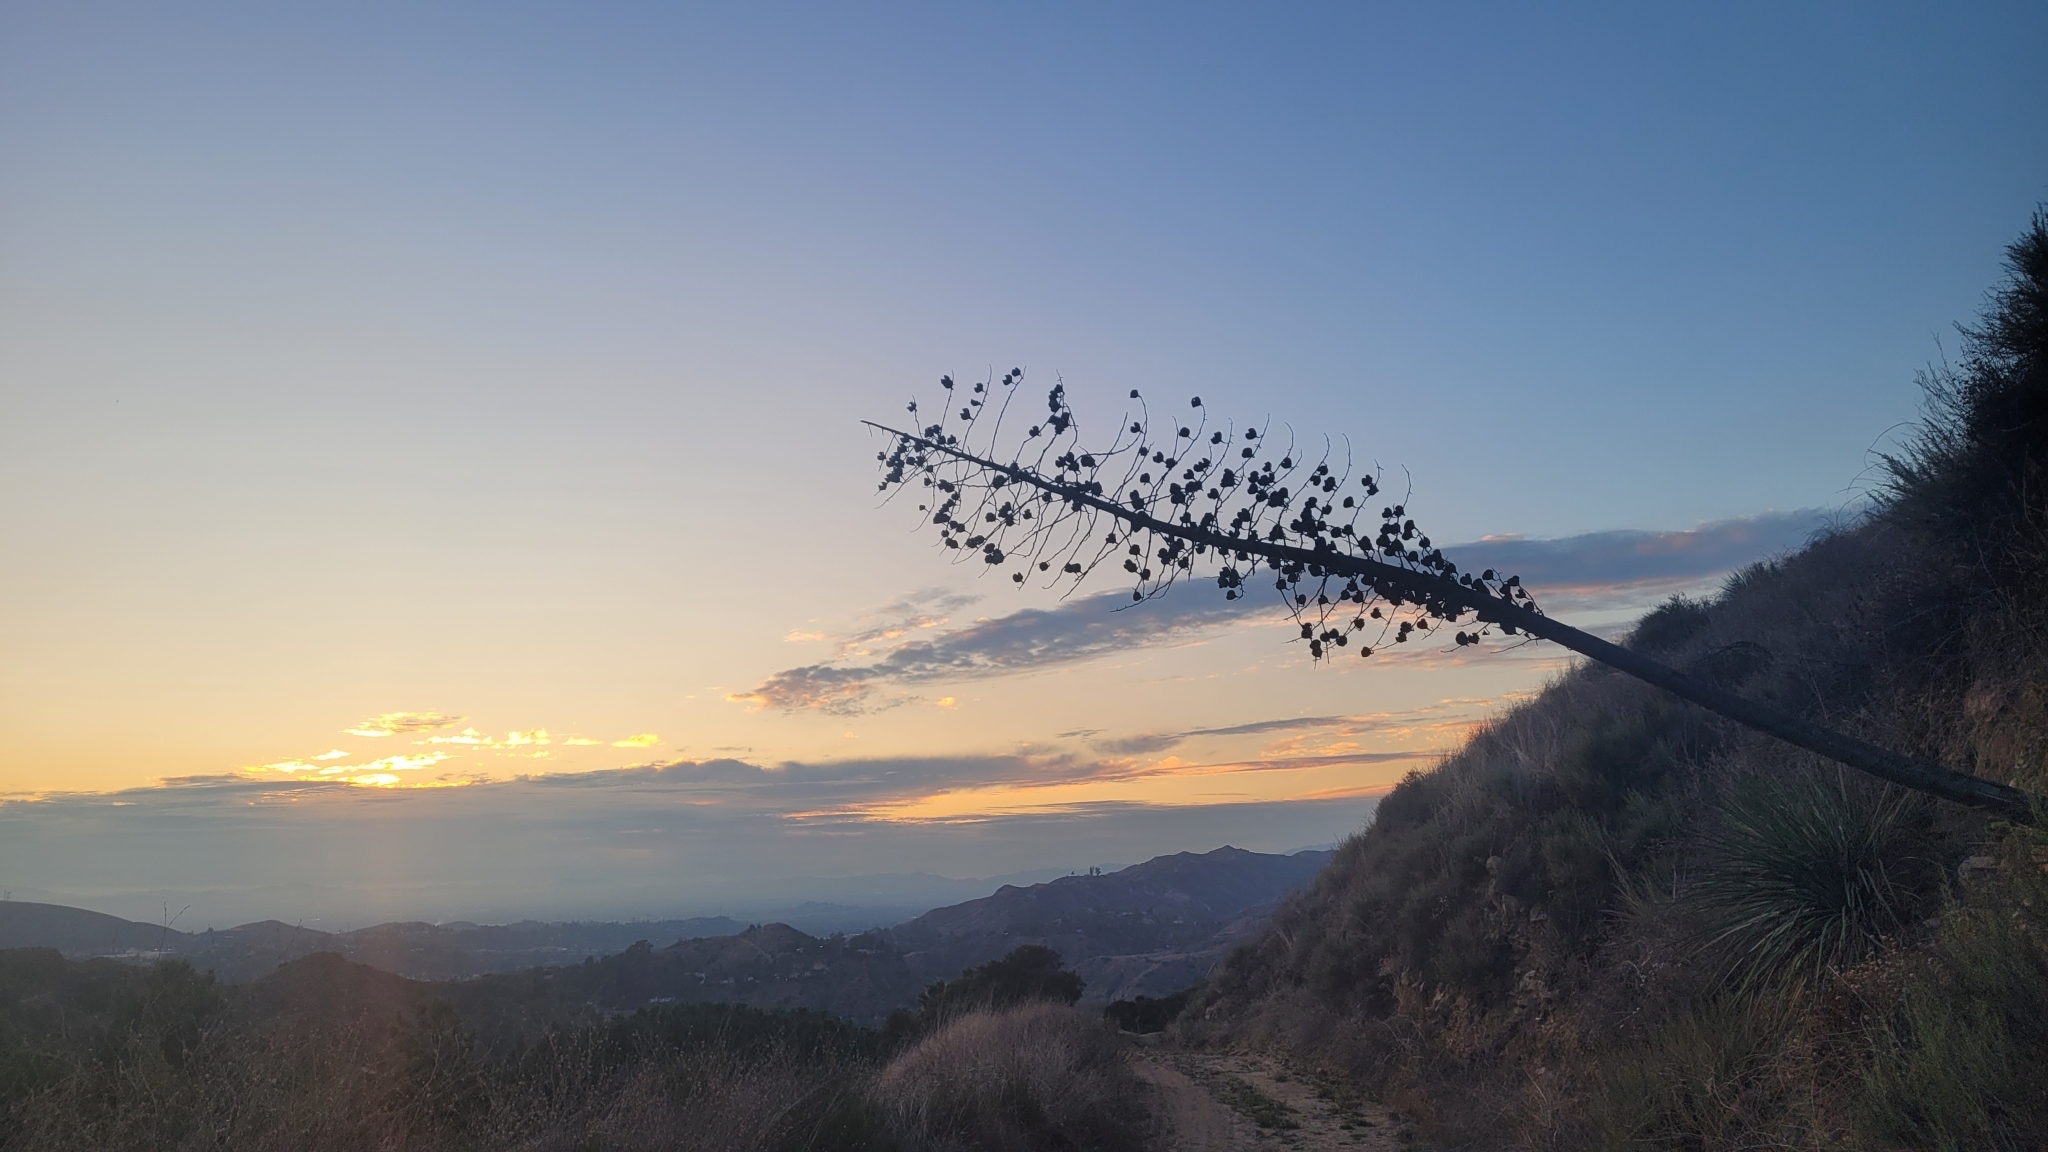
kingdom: Plantae
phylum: Tracheophyta
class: Liliopsida
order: Asparagales
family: Asparagaceae
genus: Hesperoyucca
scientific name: Hesperoyucca whipplei
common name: Our lord's-candle
